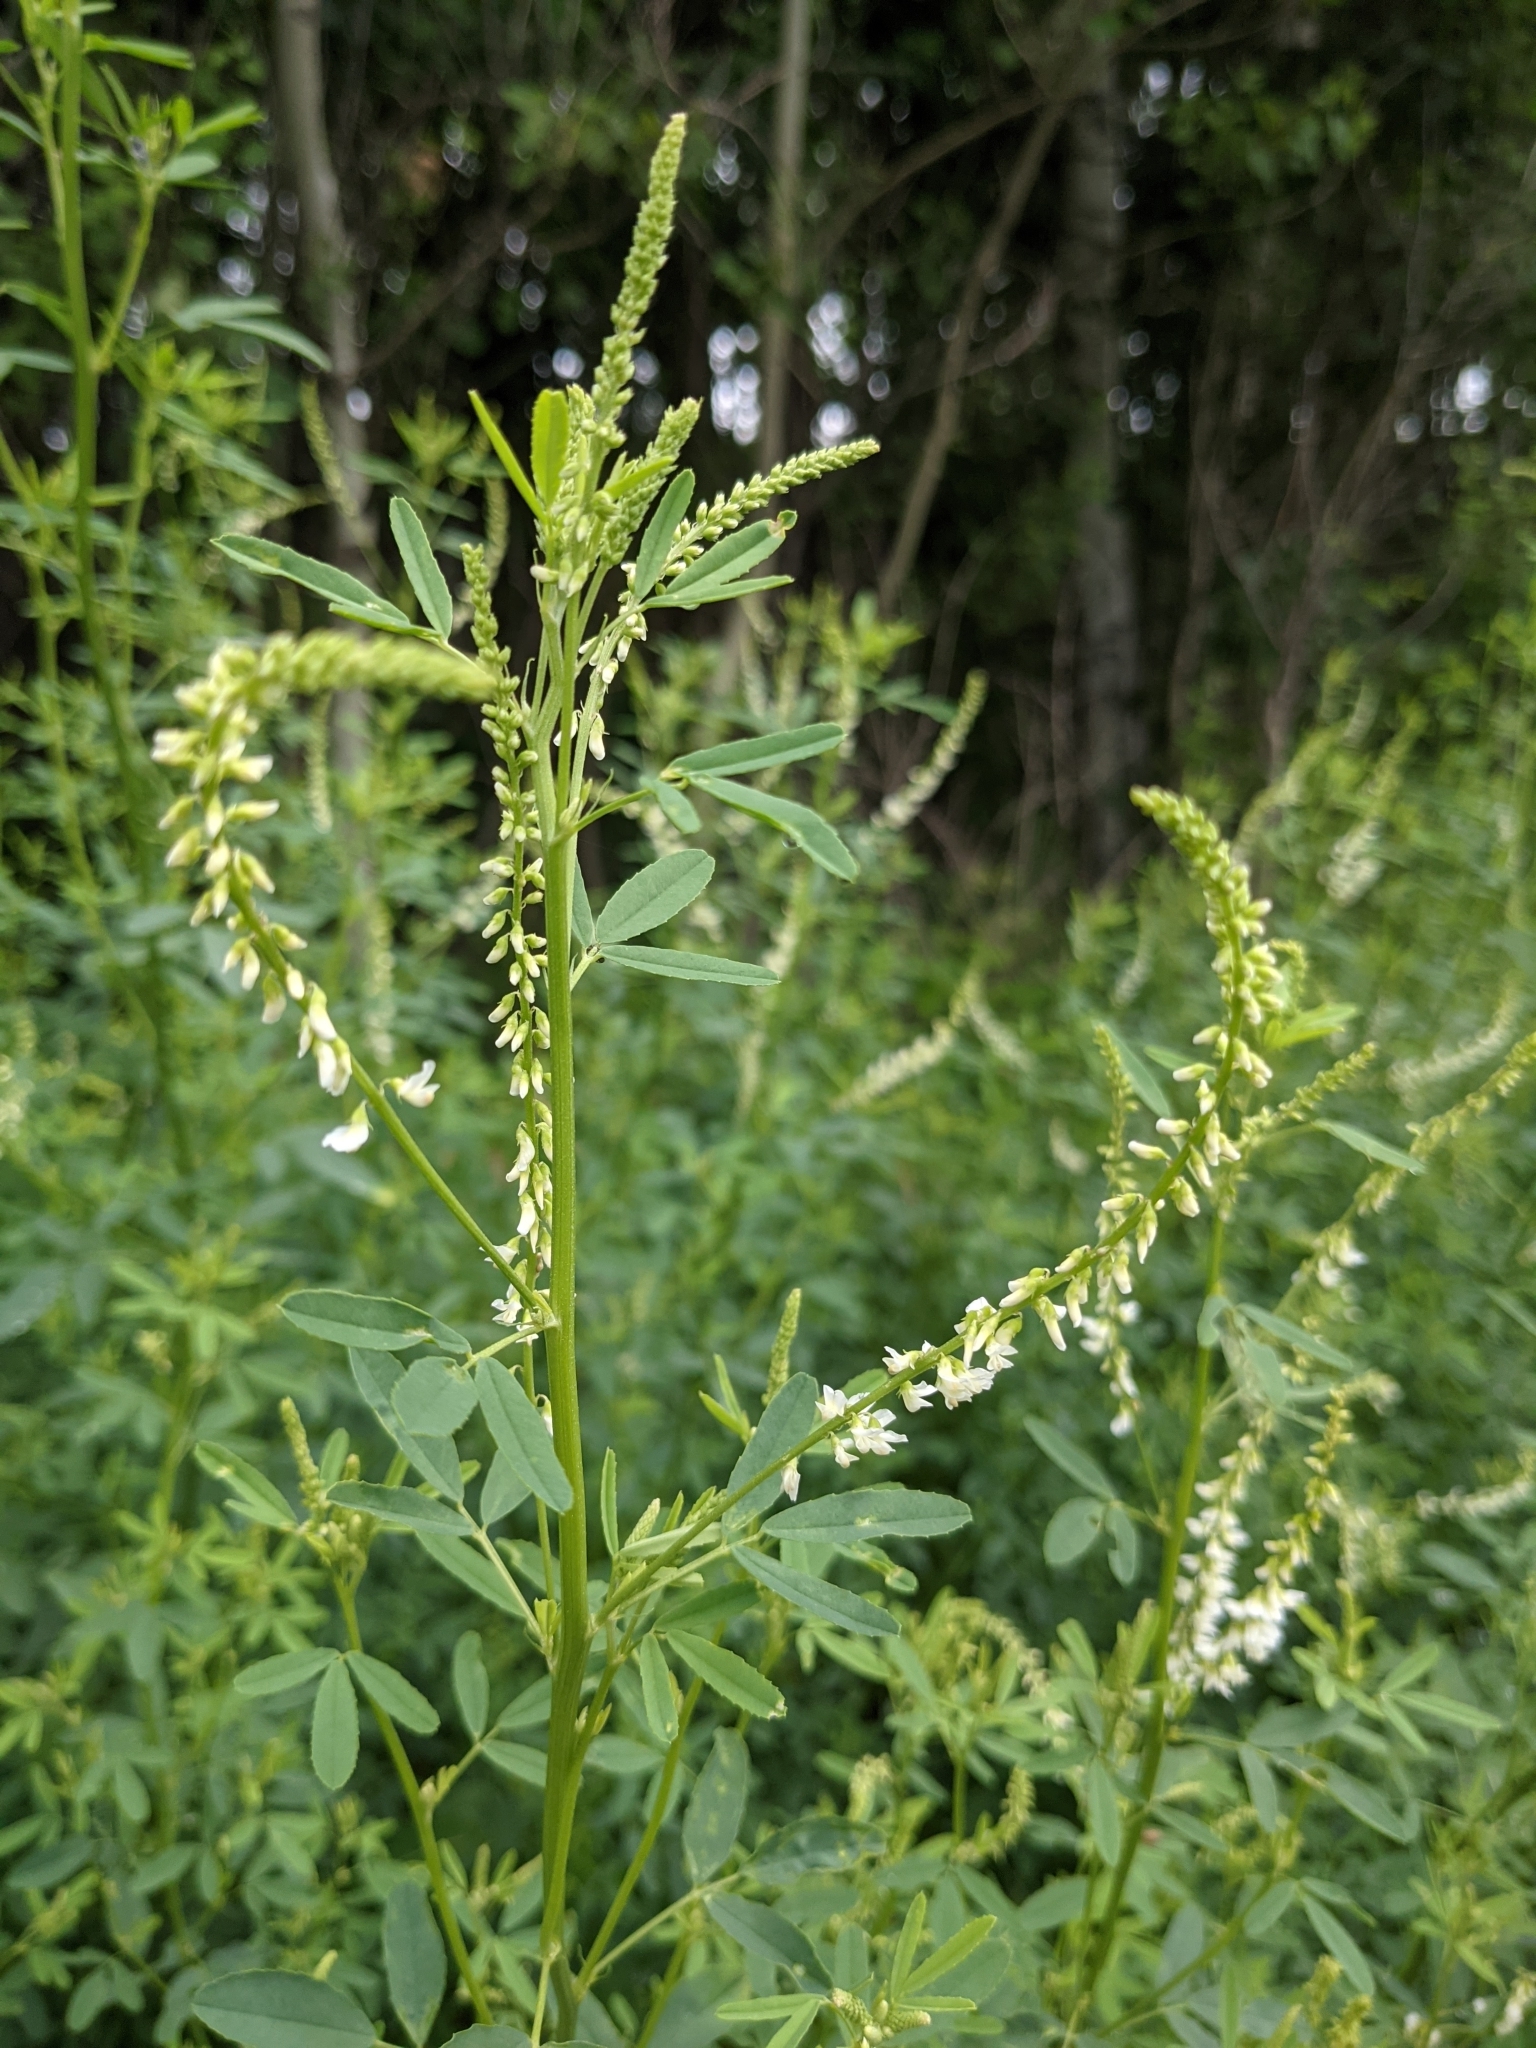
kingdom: Plantae
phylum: Tracheophyta
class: Magnoliopsida
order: Fabales
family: Fabaceae
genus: Melilotus
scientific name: Melilotus albus
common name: White melilot
